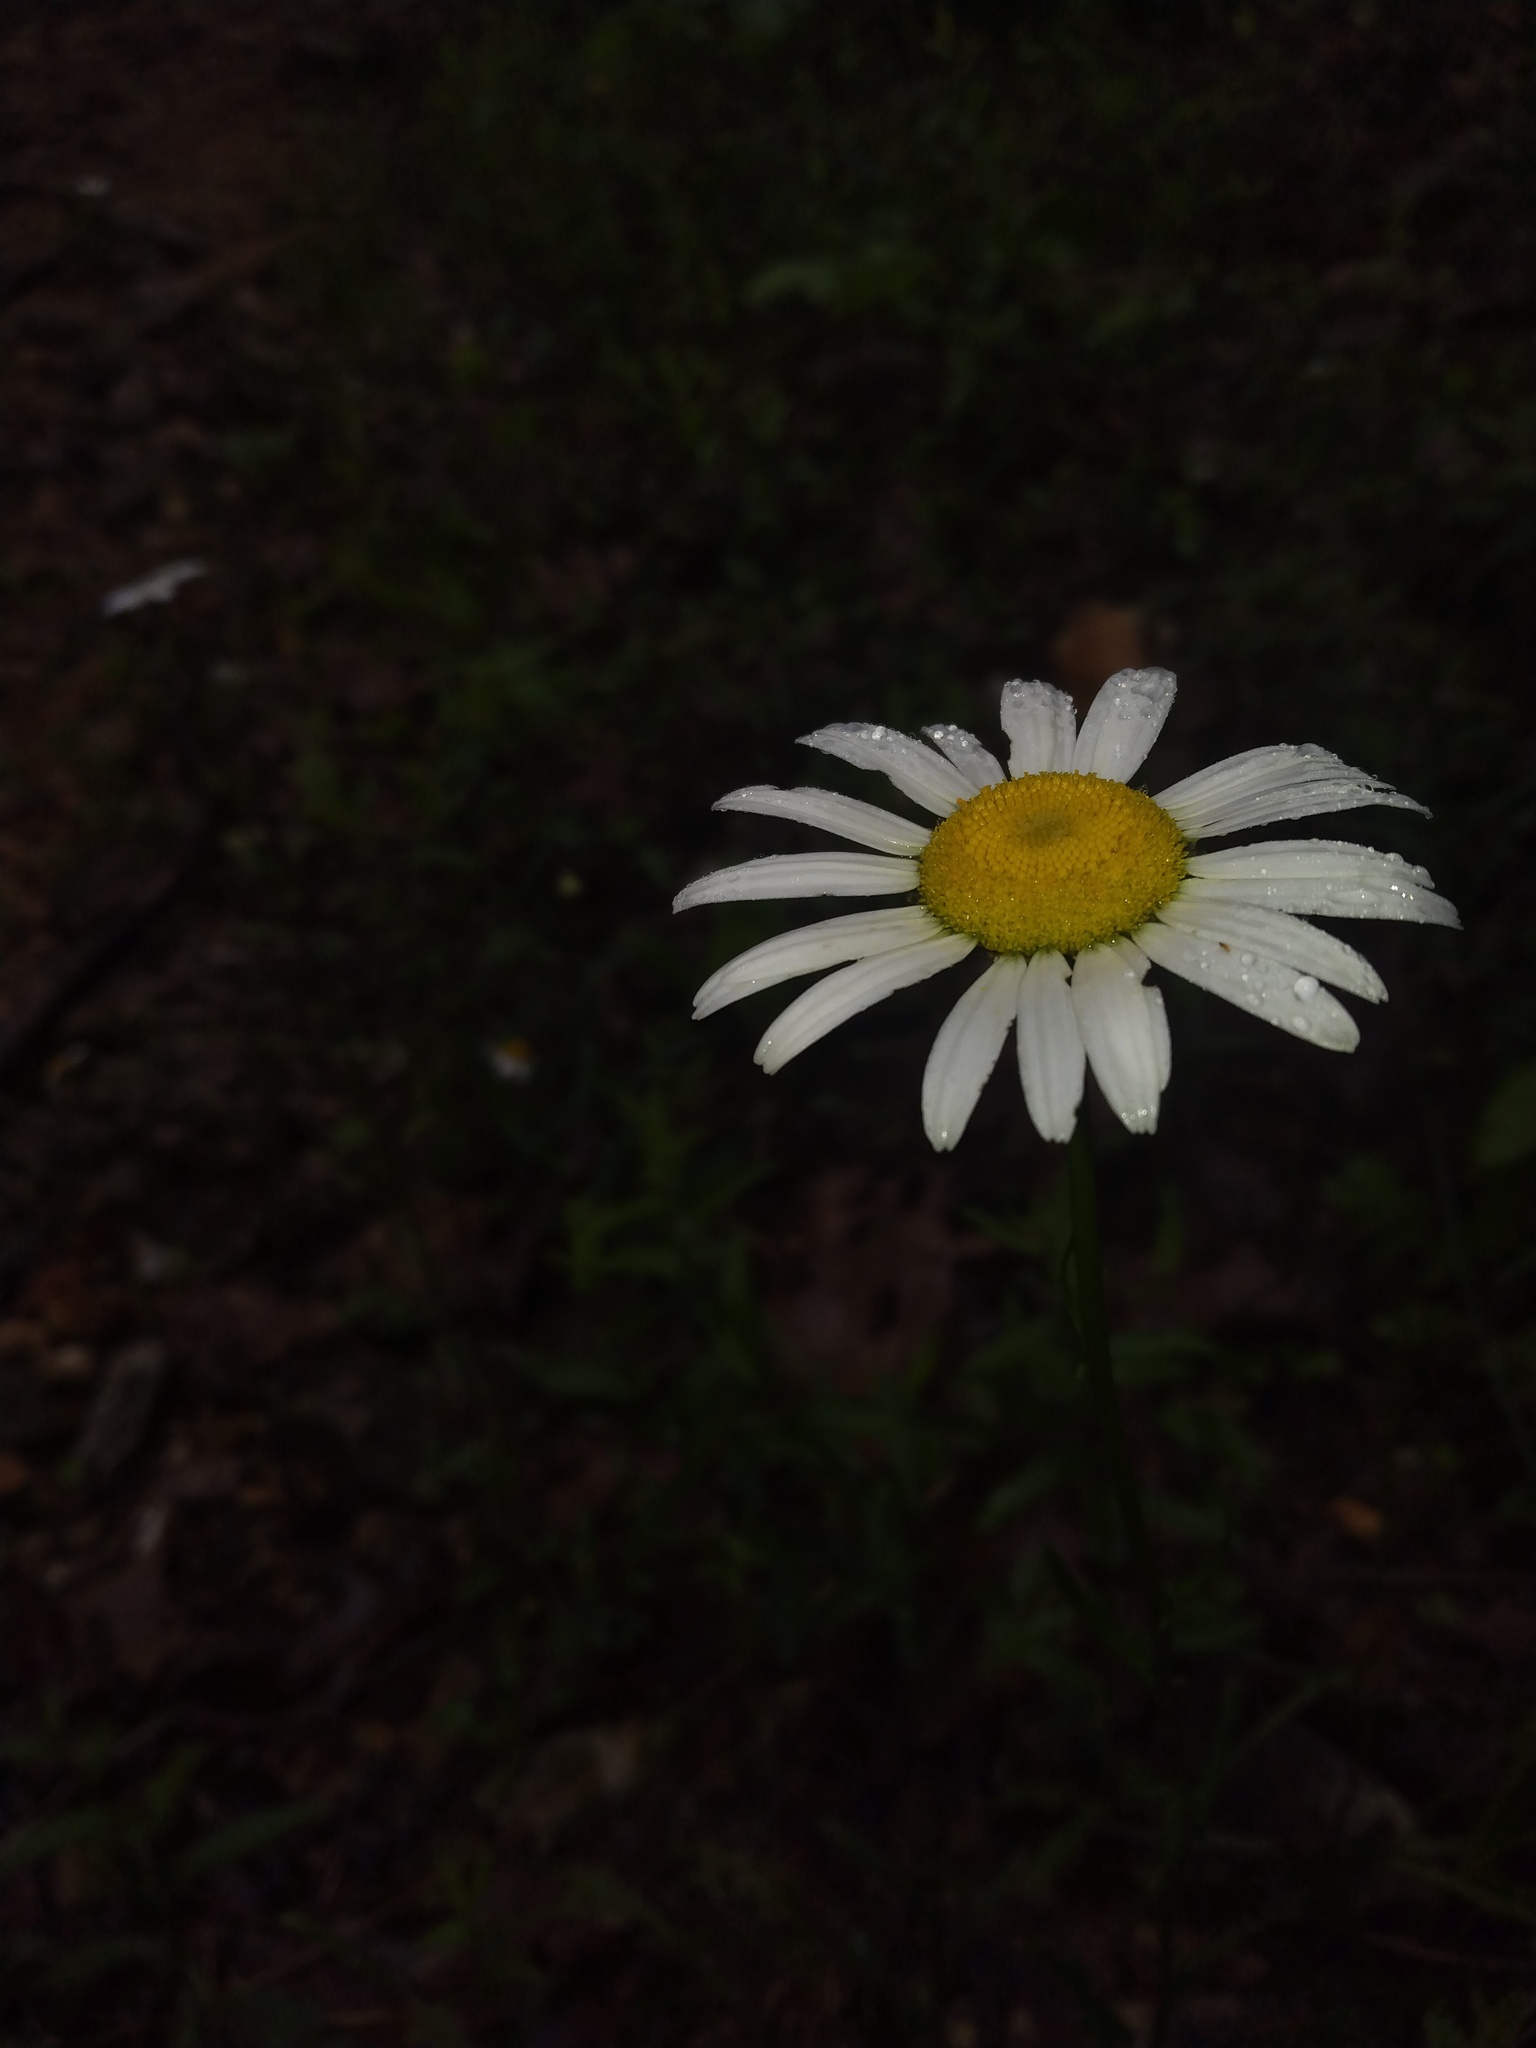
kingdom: Plantae
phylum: Tracheophyta
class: Magnoliopsida
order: Asterales
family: Asteraceae
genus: Leucanthemum
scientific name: Leucanthemum vulgare
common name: Oxeye daisy
